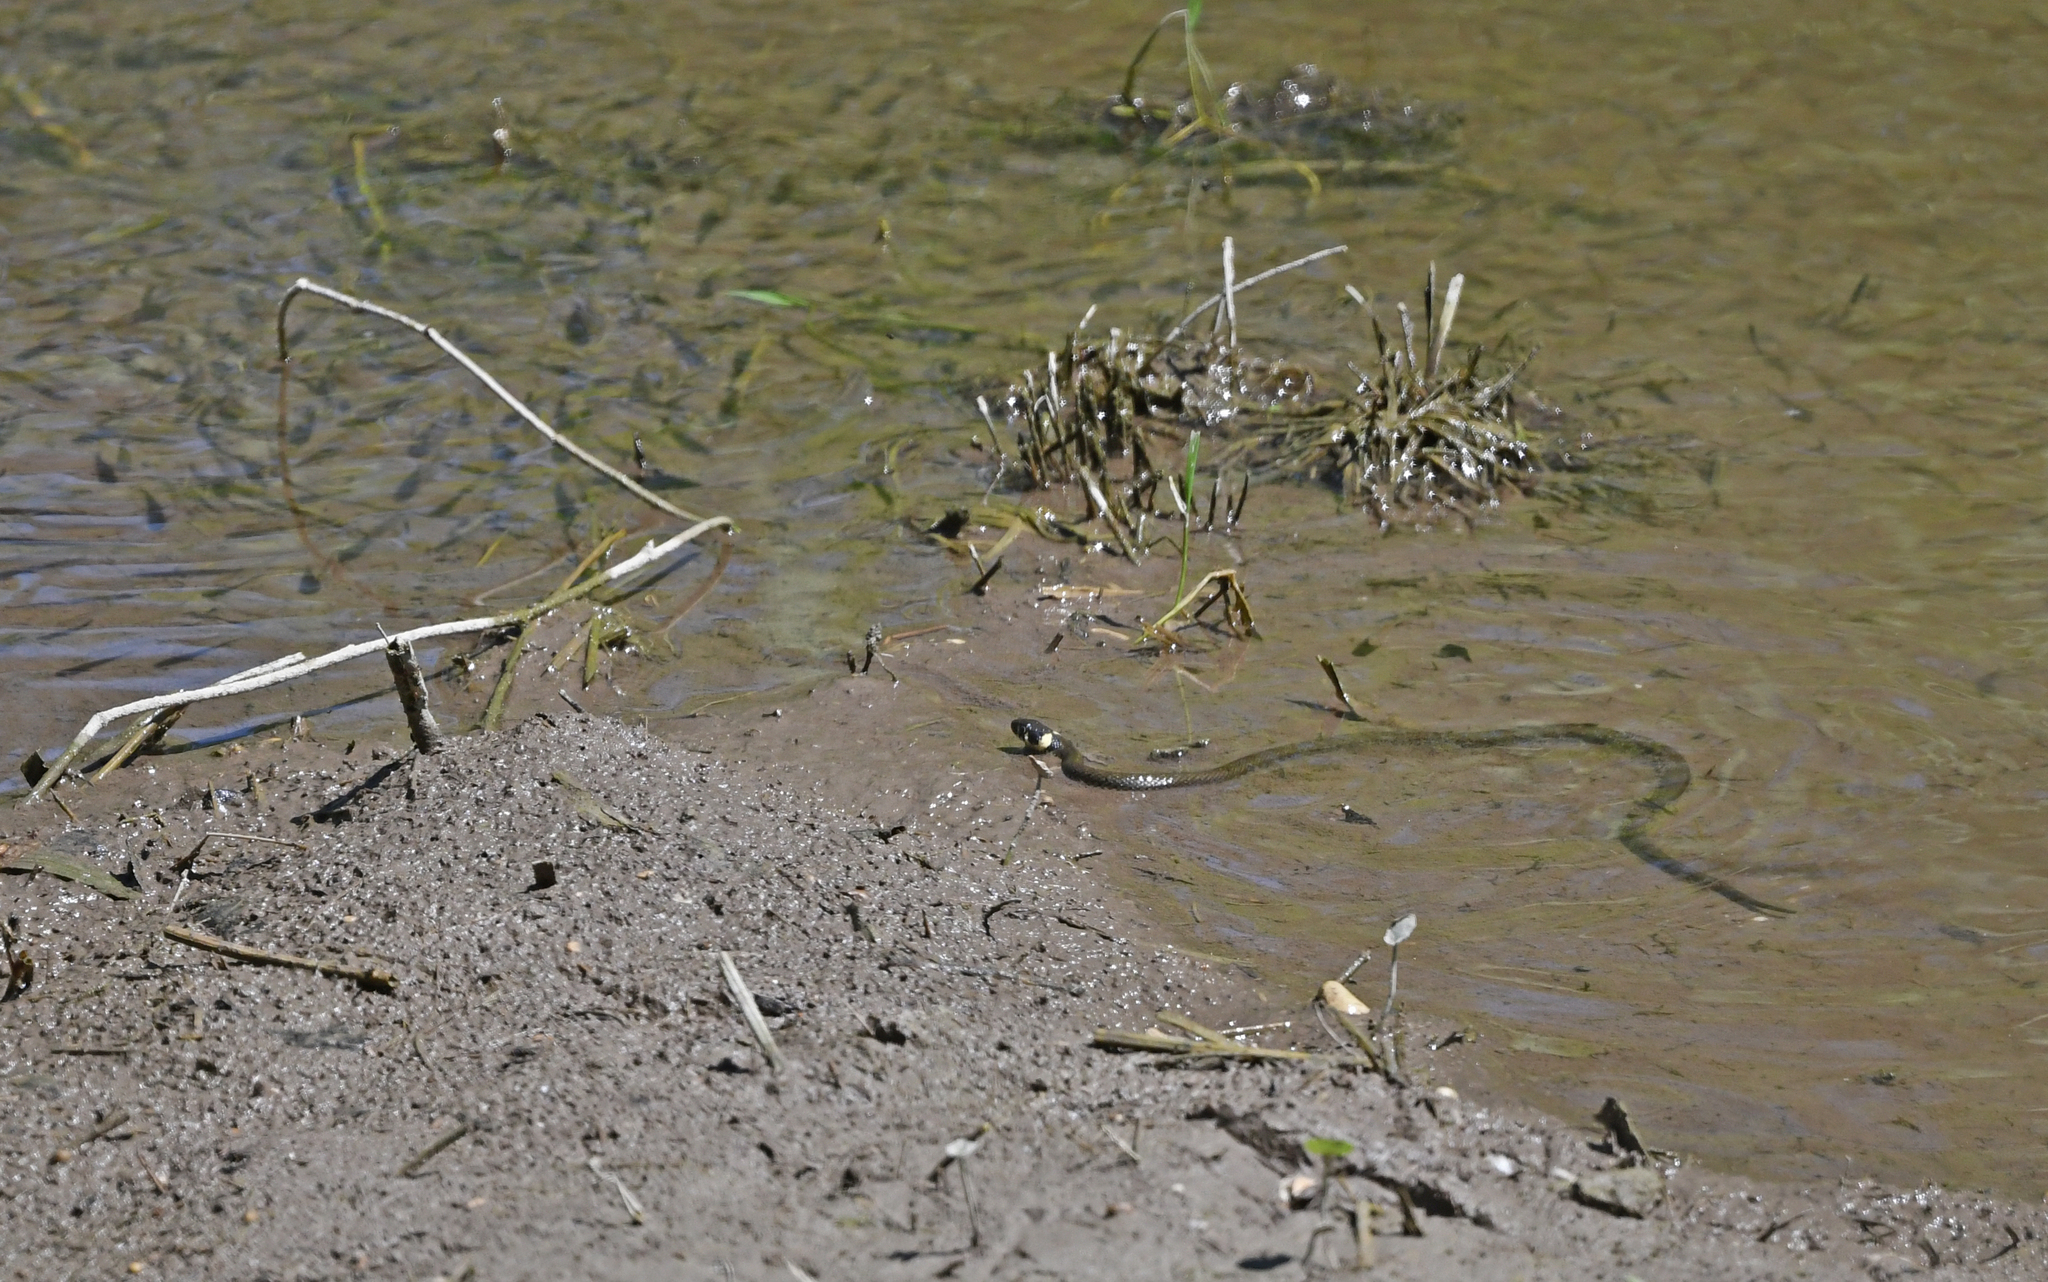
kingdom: Animalia
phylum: Chordata
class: Squamata
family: Colubridae
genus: Natrix
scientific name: Natrix natrix
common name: Grass snake
